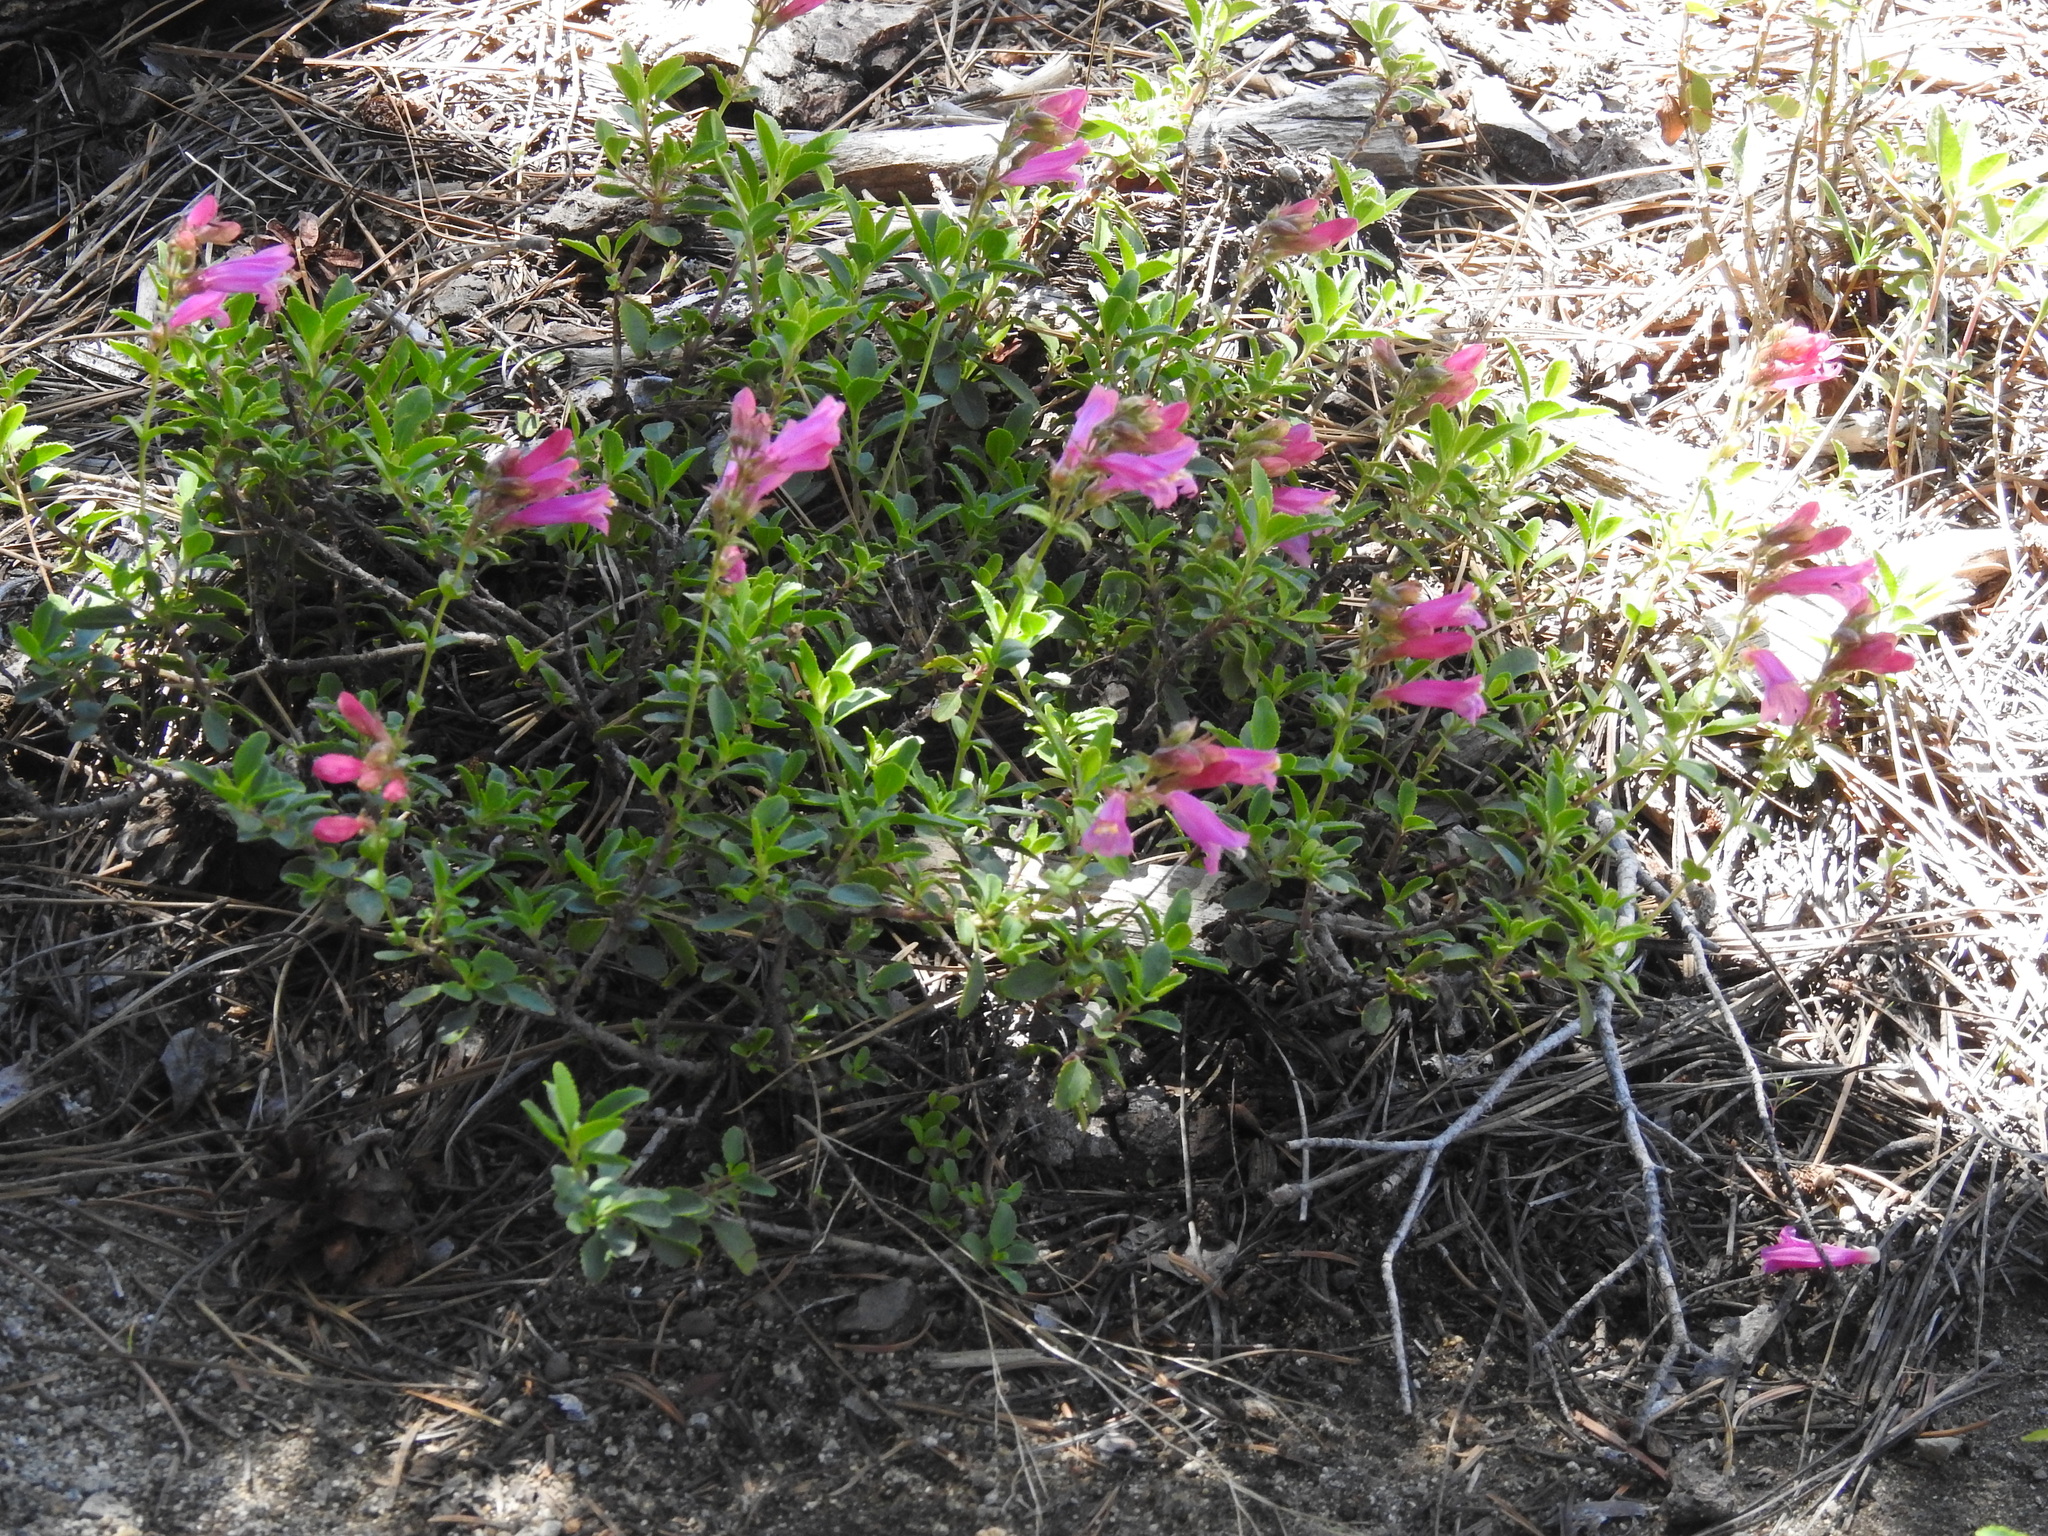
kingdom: Plantae
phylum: Tracheophyta
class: Magnoliopsida
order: Lamiales
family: Plantaginaceae
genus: Penstemon
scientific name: Penstemon newberryi
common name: Mountain-pride
